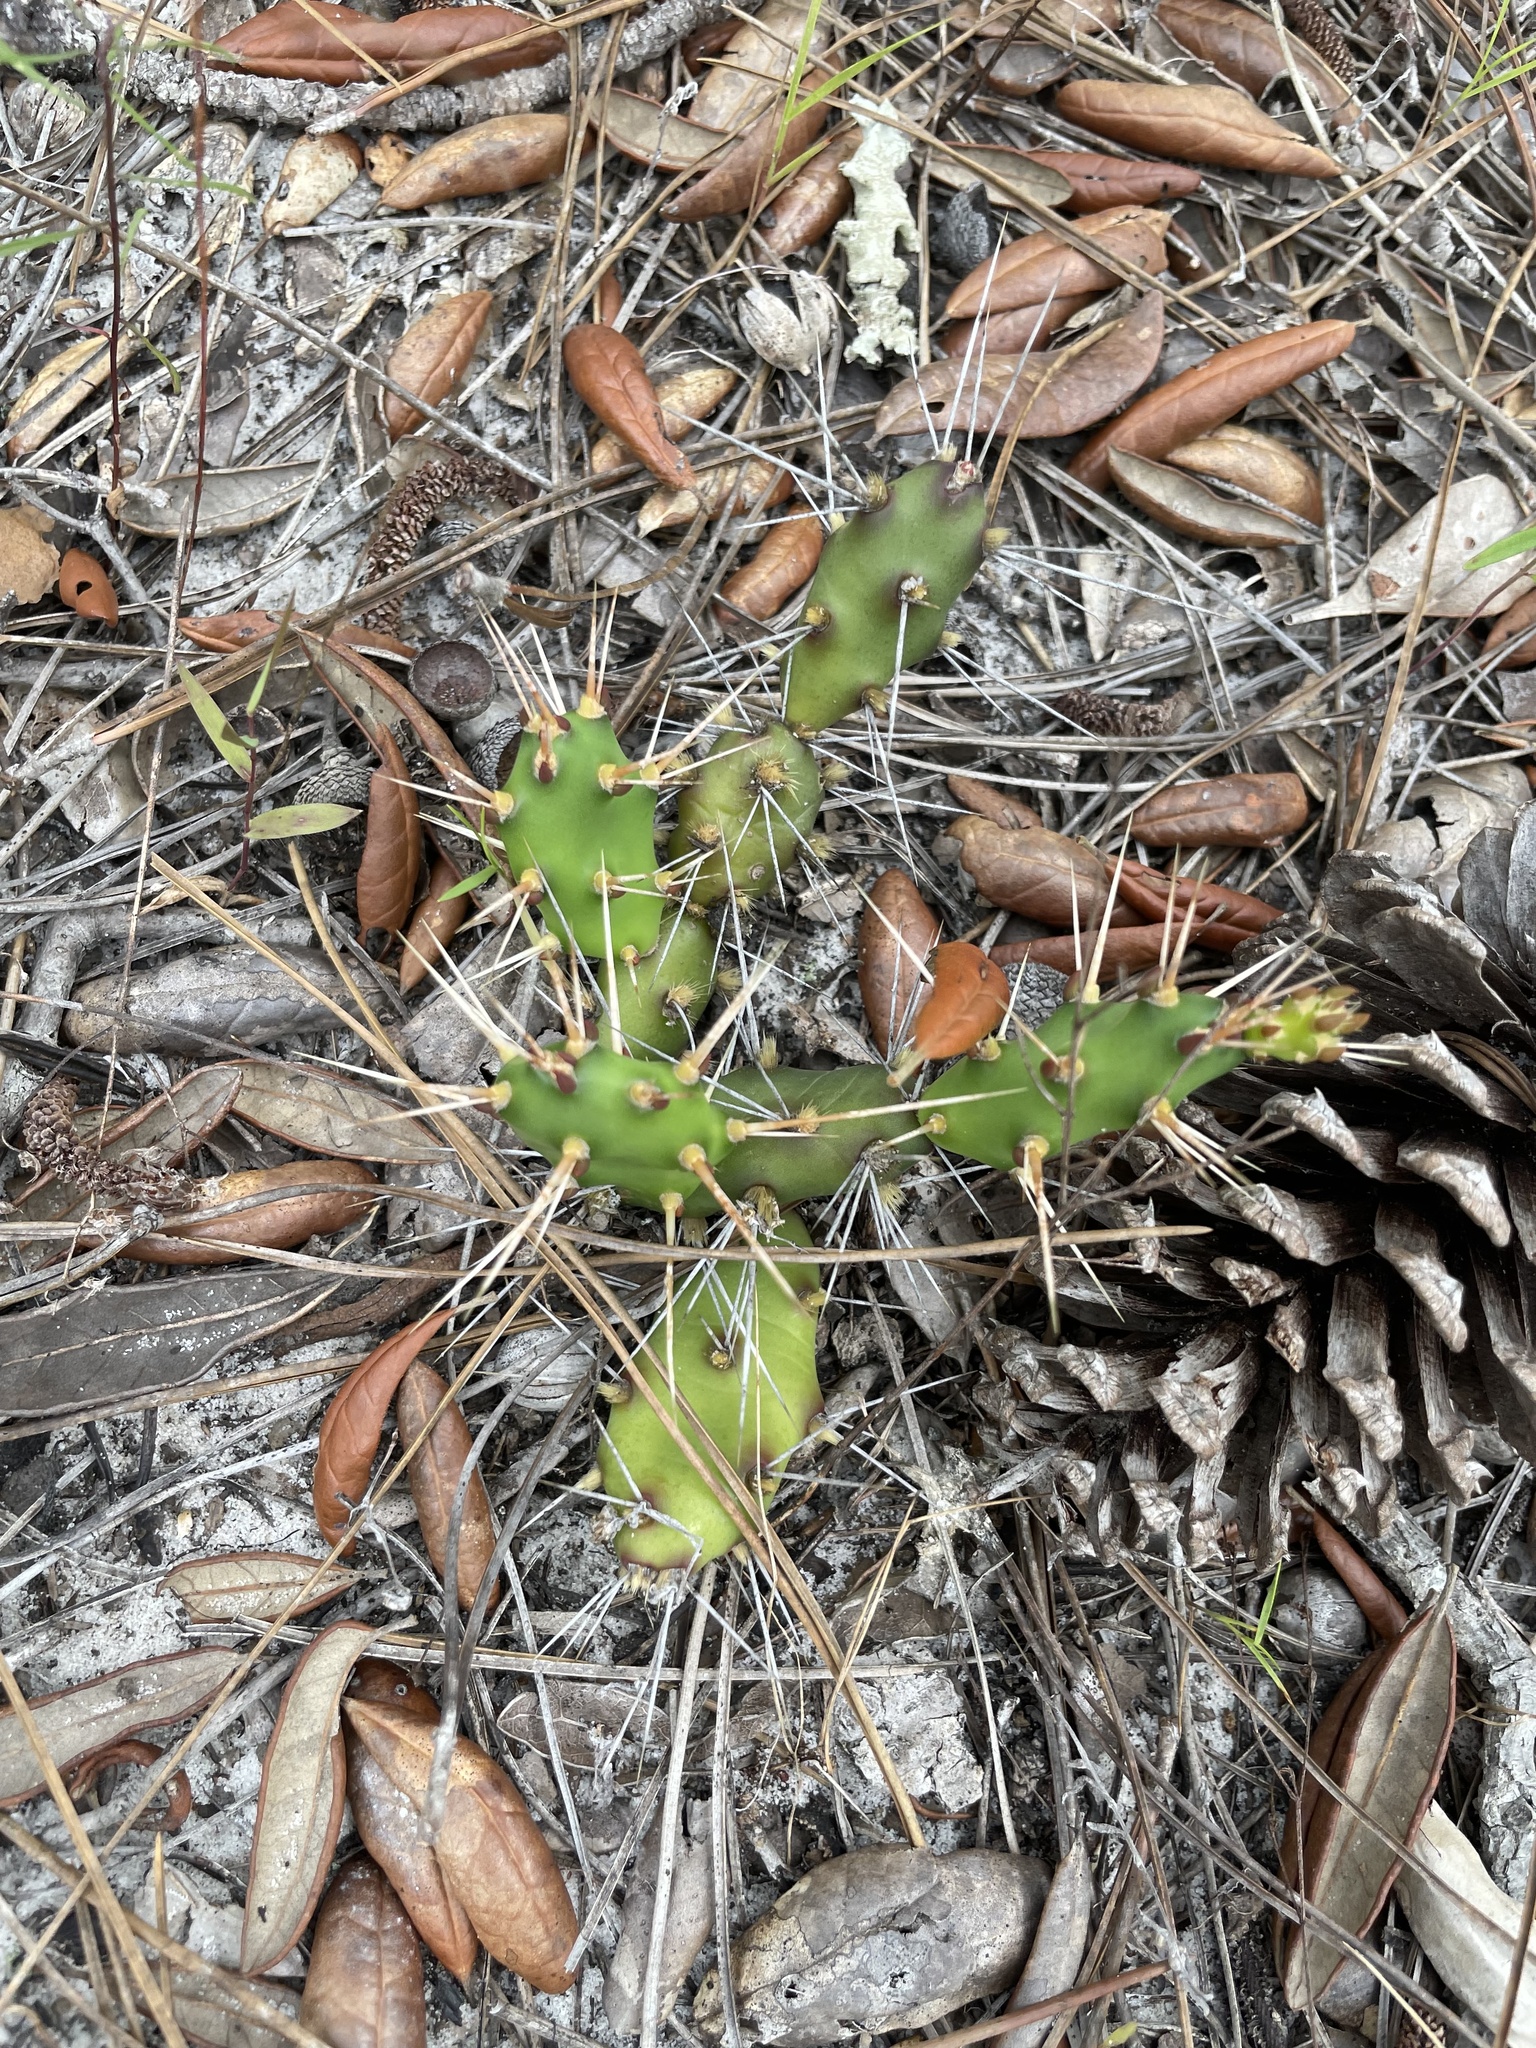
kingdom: Plantae
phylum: Tracheophyta
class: Magnoliopsida
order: Caryophyllales
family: Cactaceae
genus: Opuntia
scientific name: Opuntia drummondii
